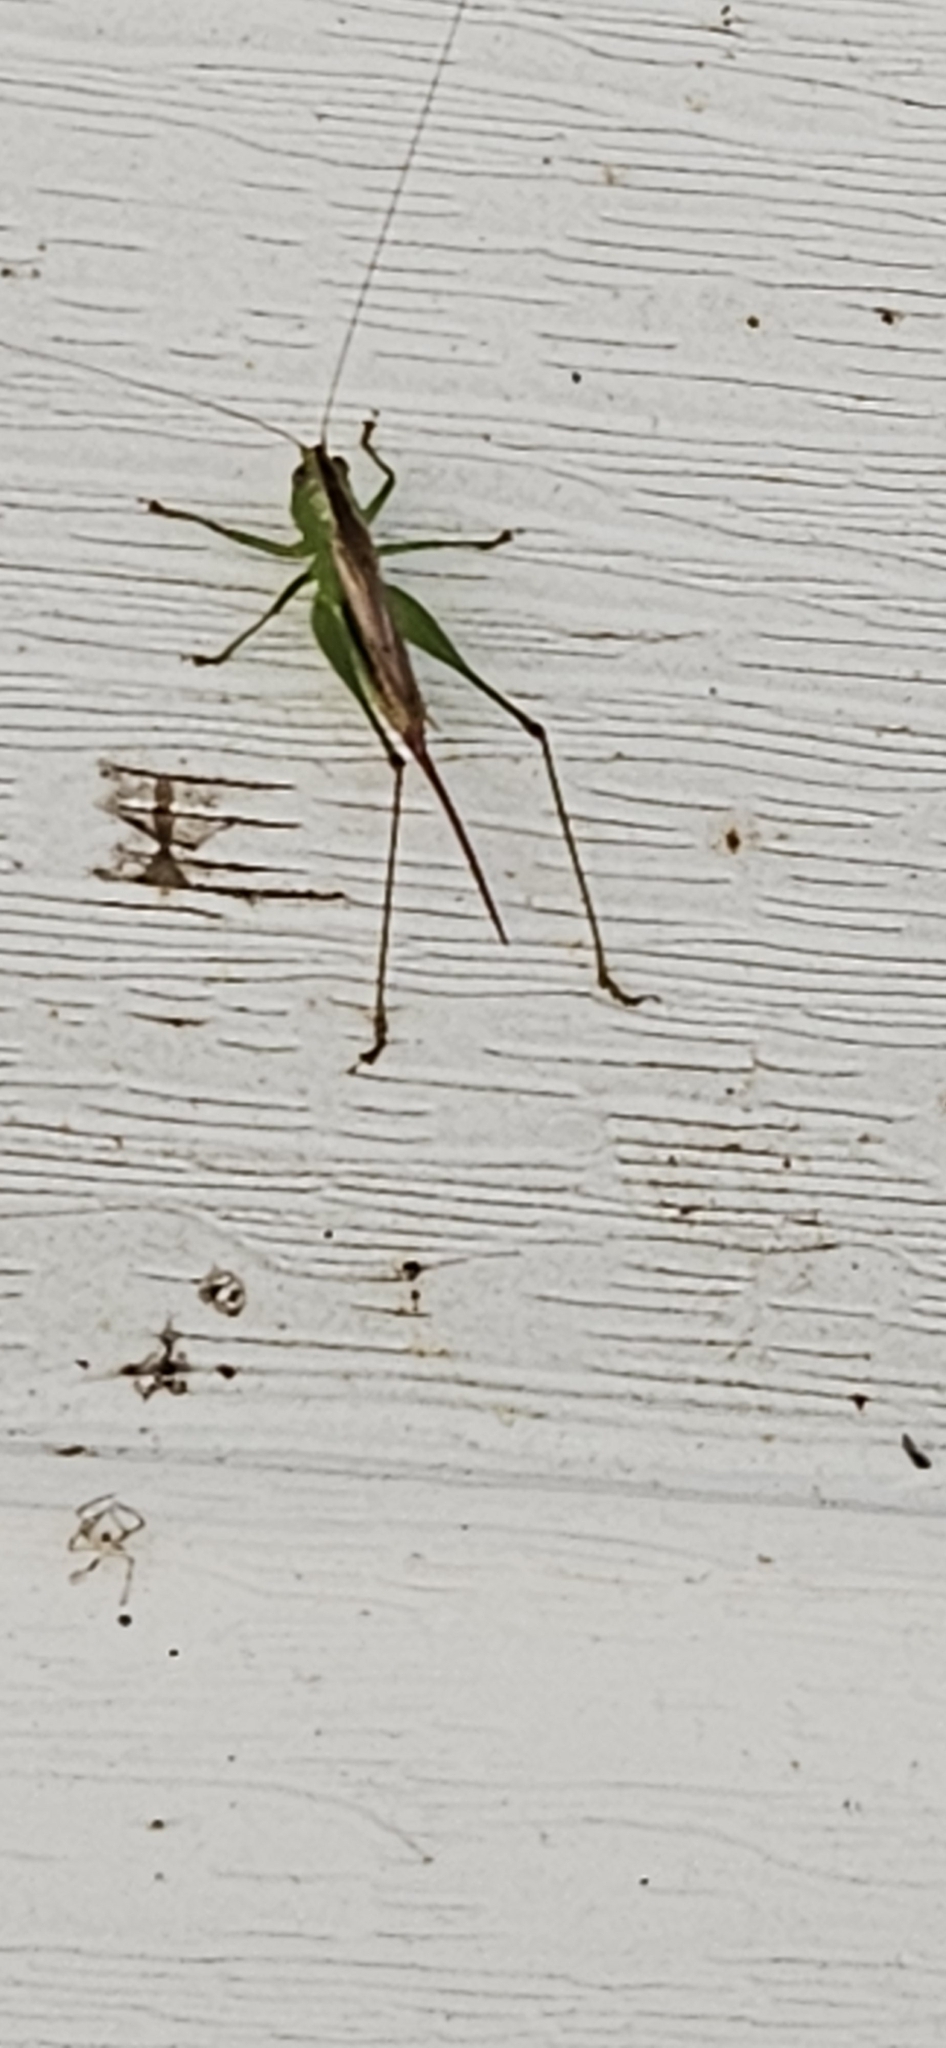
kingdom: Animalia
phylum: Arthropoda
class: Insecta
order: Orthoptera
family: Tettigoniidae
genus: Conocephalus
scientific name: Conocephalus brevipennis
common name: Short-winged meadow katydid
